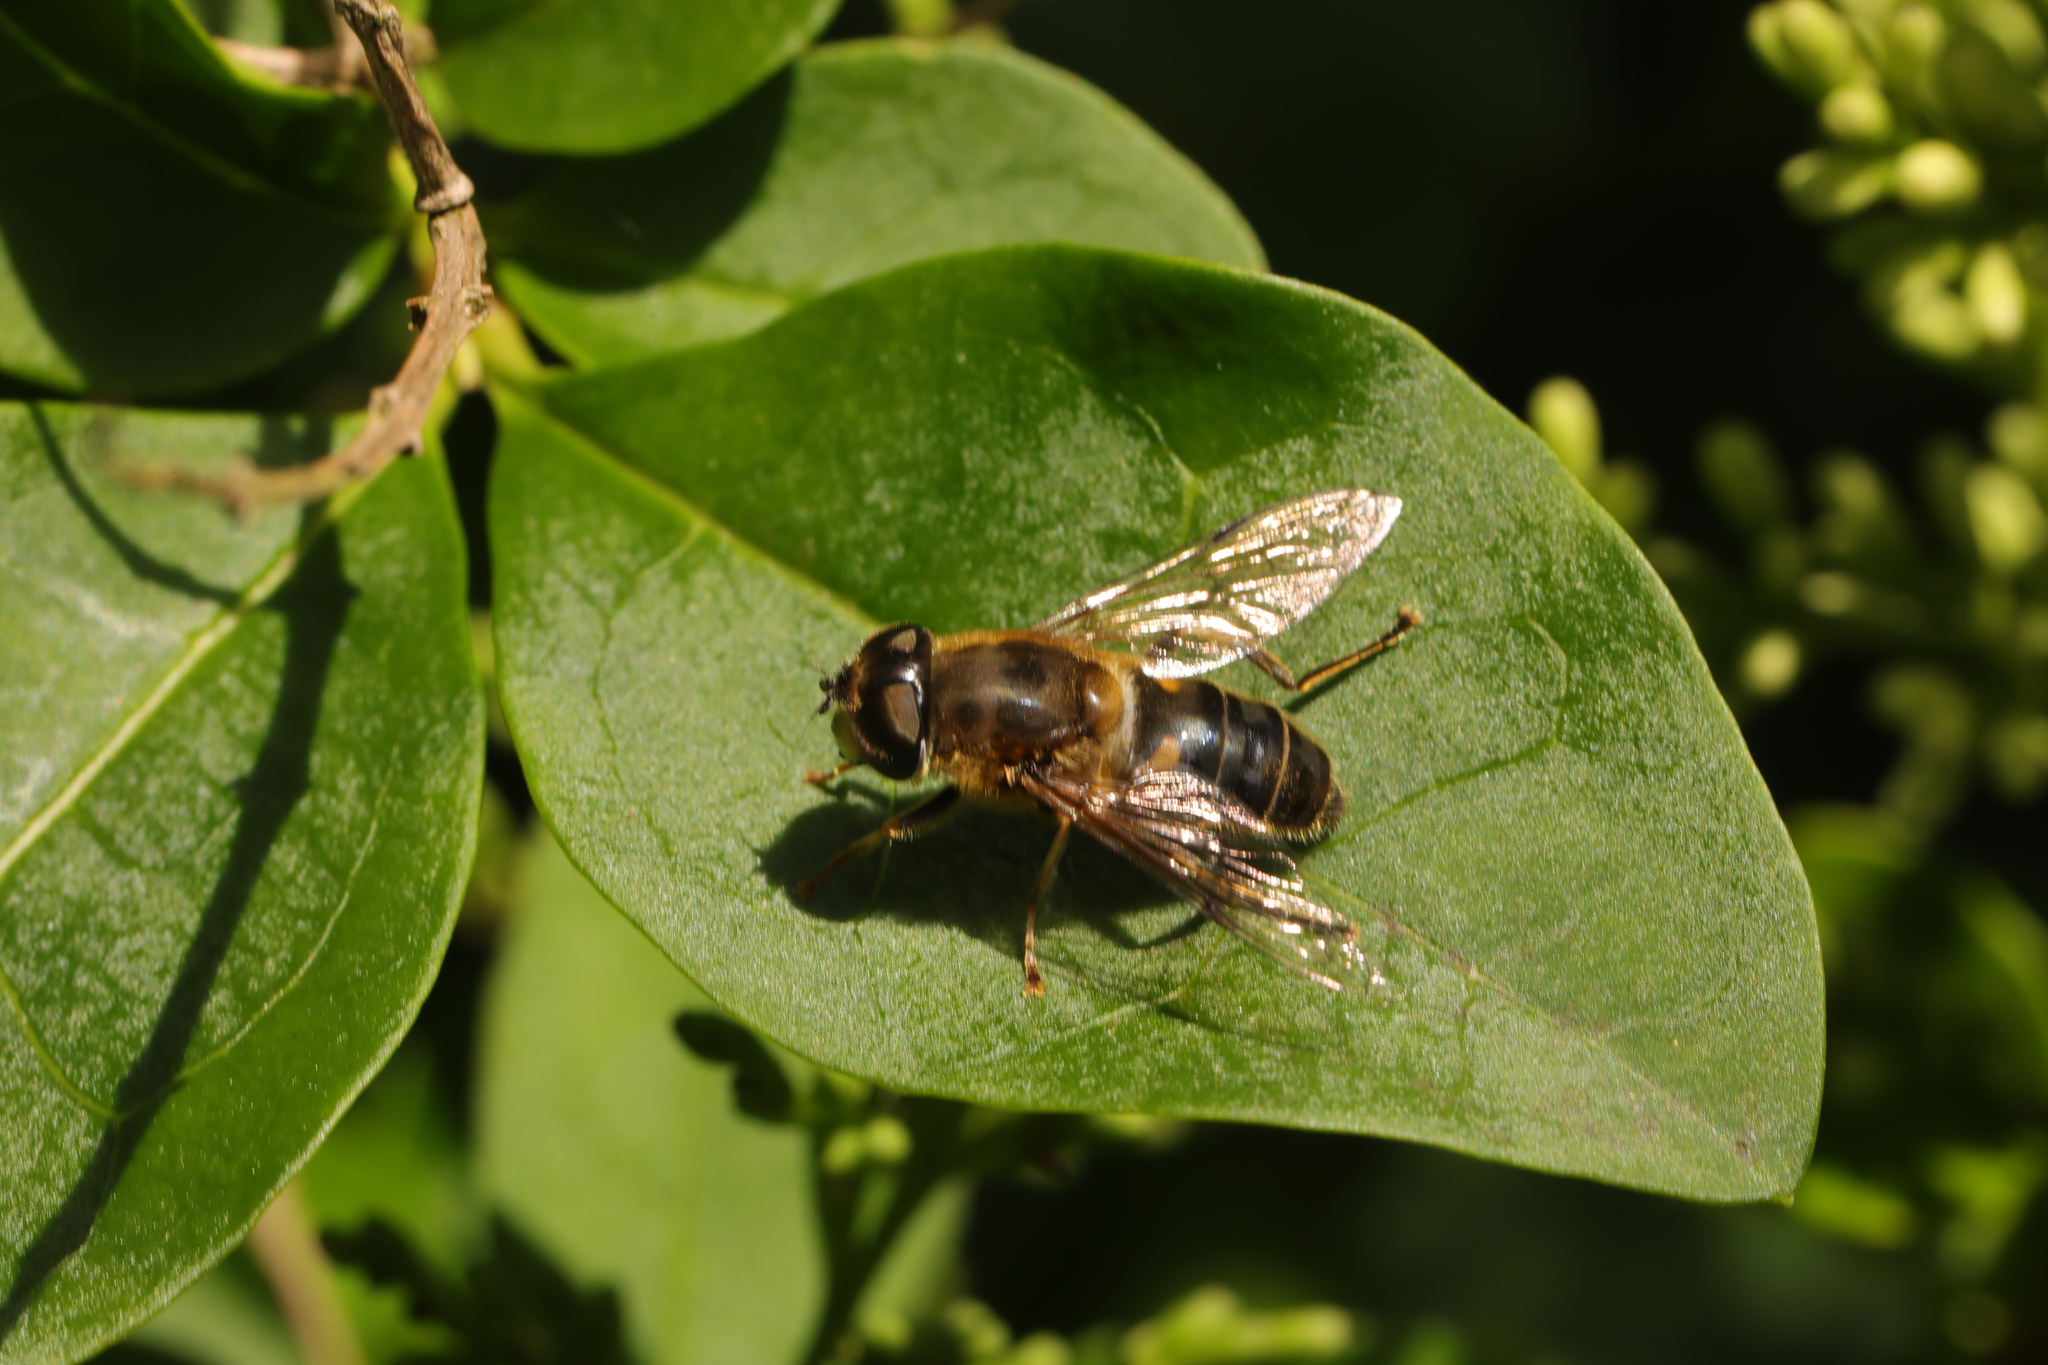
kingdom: Animalia
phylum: Arthropoda
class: Insecta
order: Diptera
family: Syrphidae
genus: Eristalis
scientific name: Eristalis pertinax
